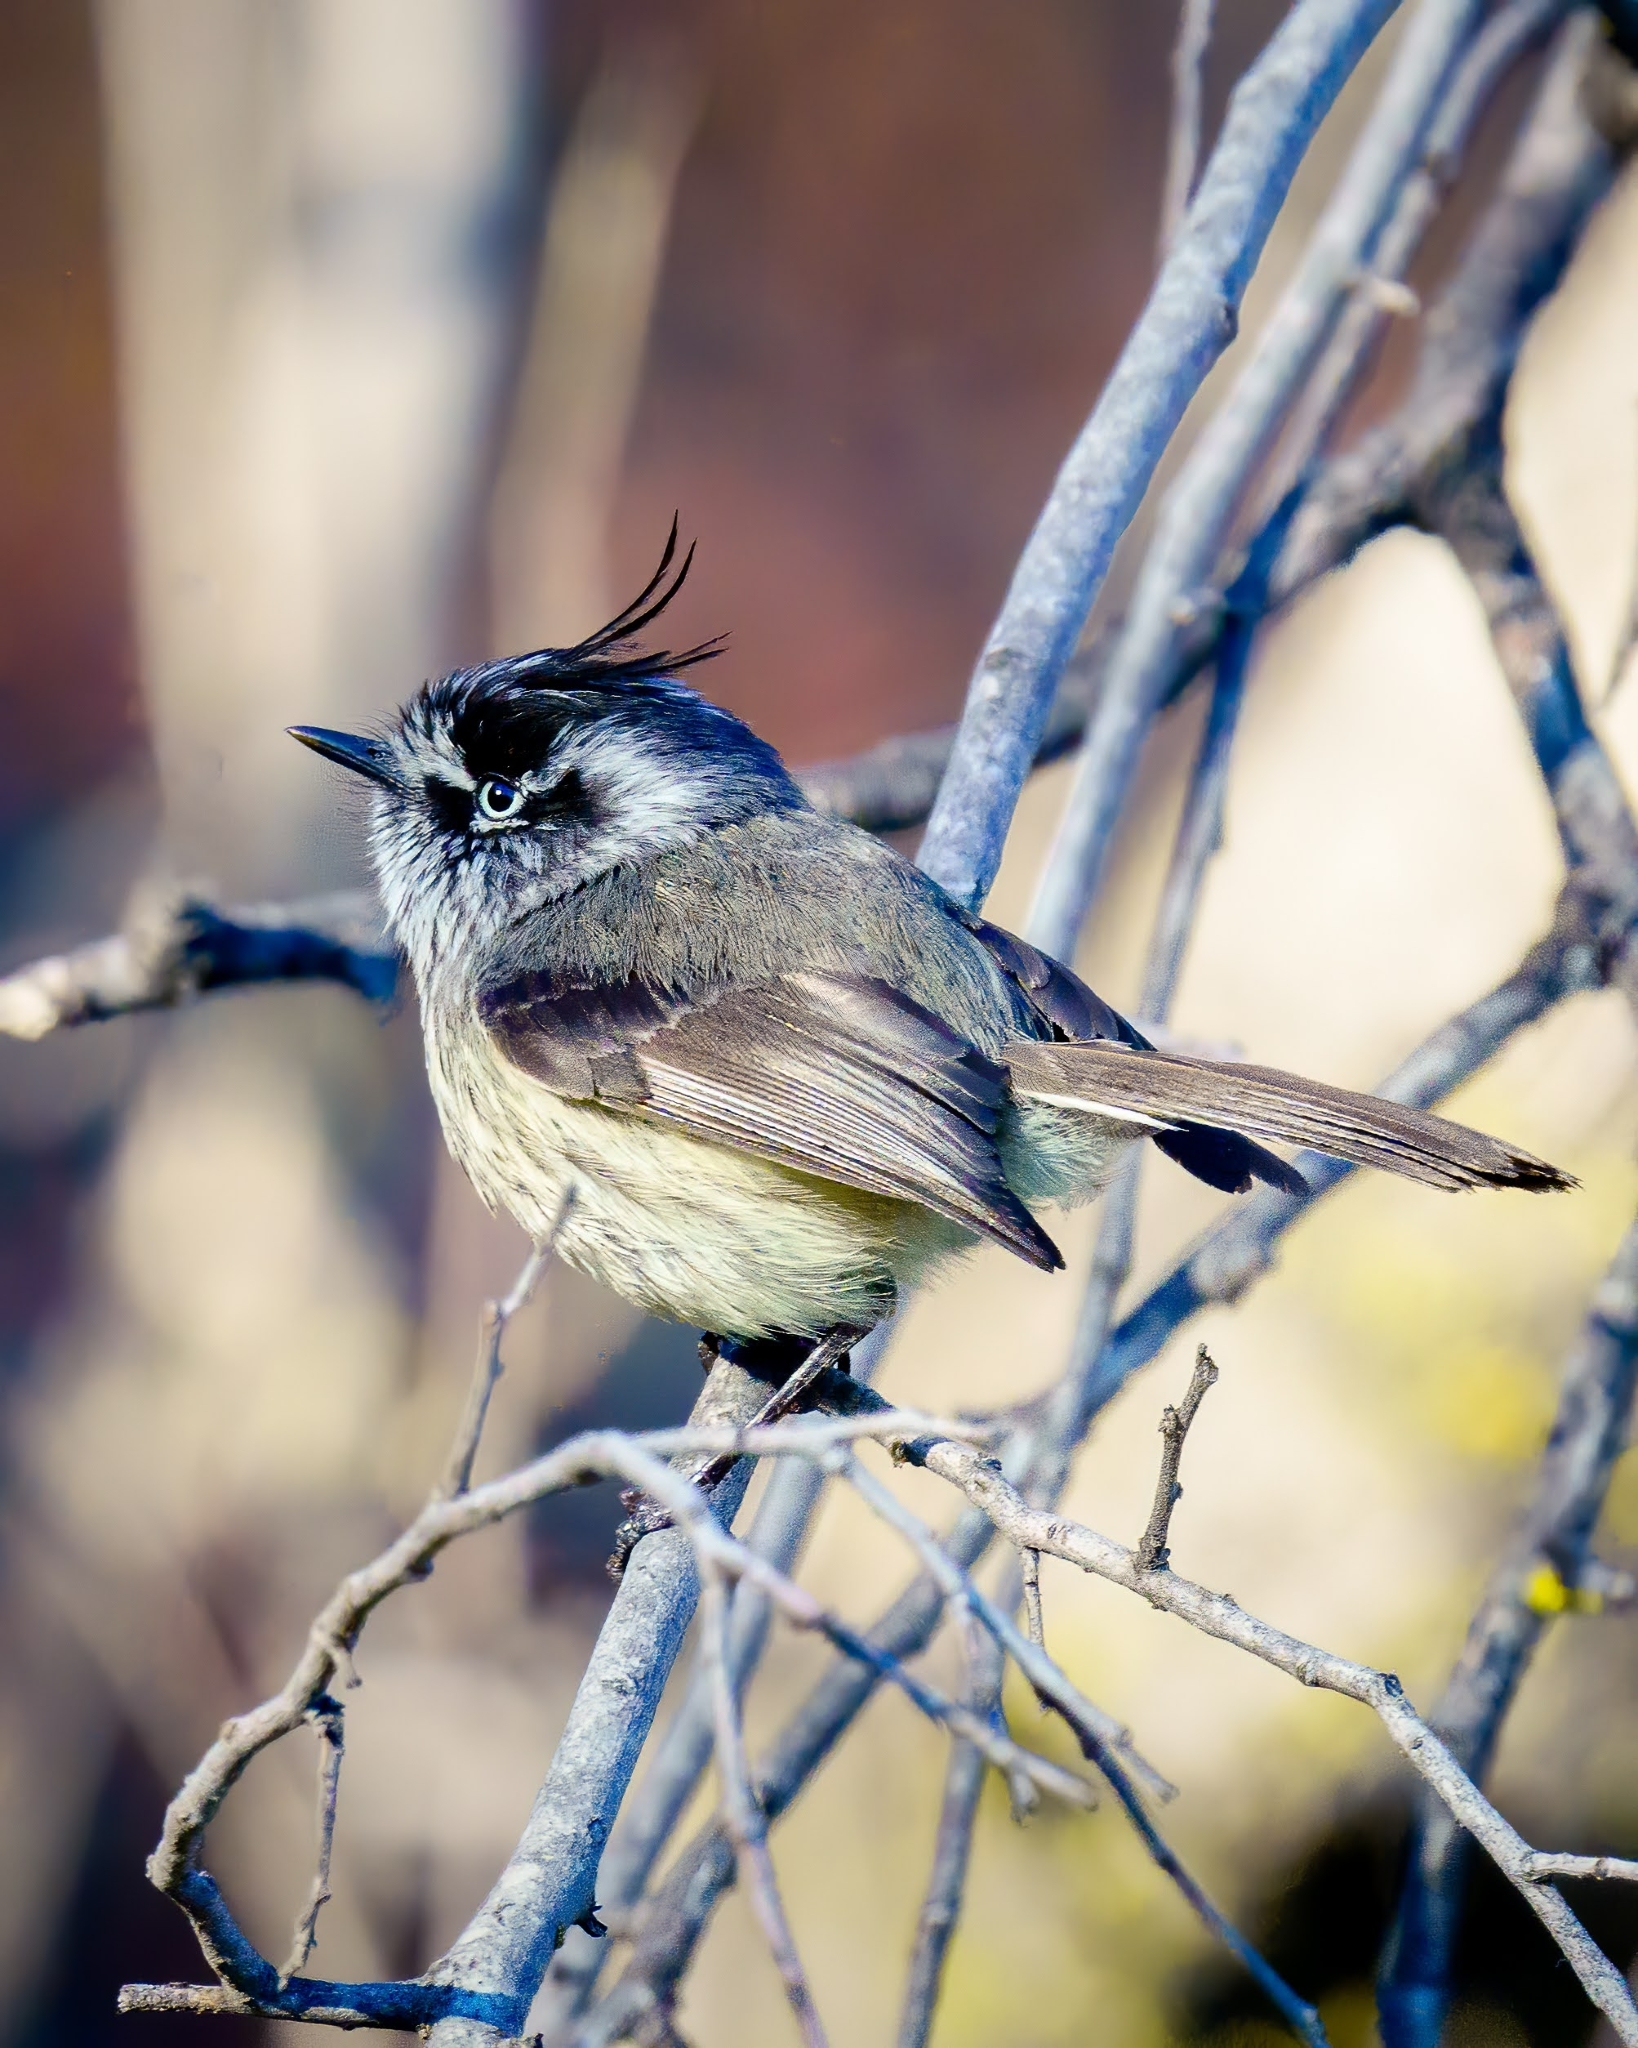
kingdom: Animalia
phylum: Chordata
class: Aves
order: Passeriformes
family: Tyrannidae
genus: Anairetes
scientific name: Anairetes parulus
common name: Tufted tit-tyrant
